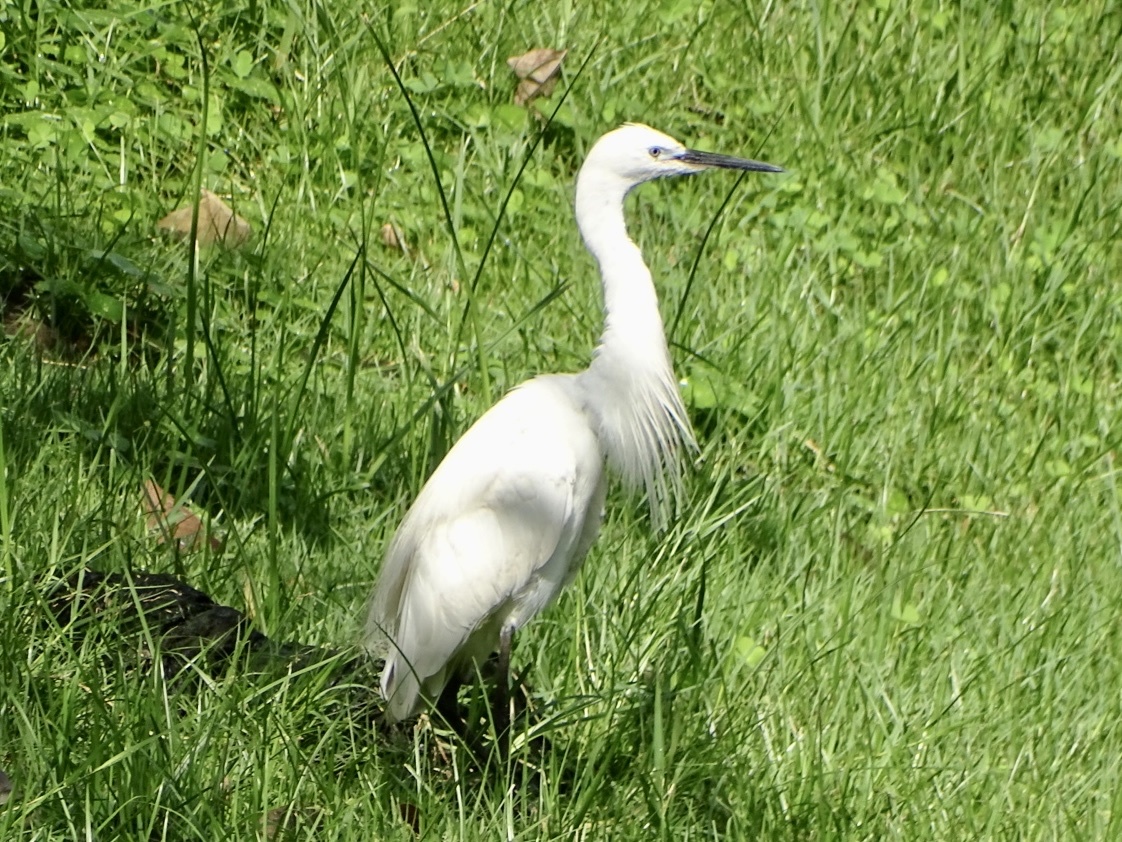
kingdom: Animalia
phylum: Chordata
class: Aves
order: Pelecaniformes
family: Ardeidae
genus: Egretta
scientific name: Egretta garzetta
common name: Little egret
